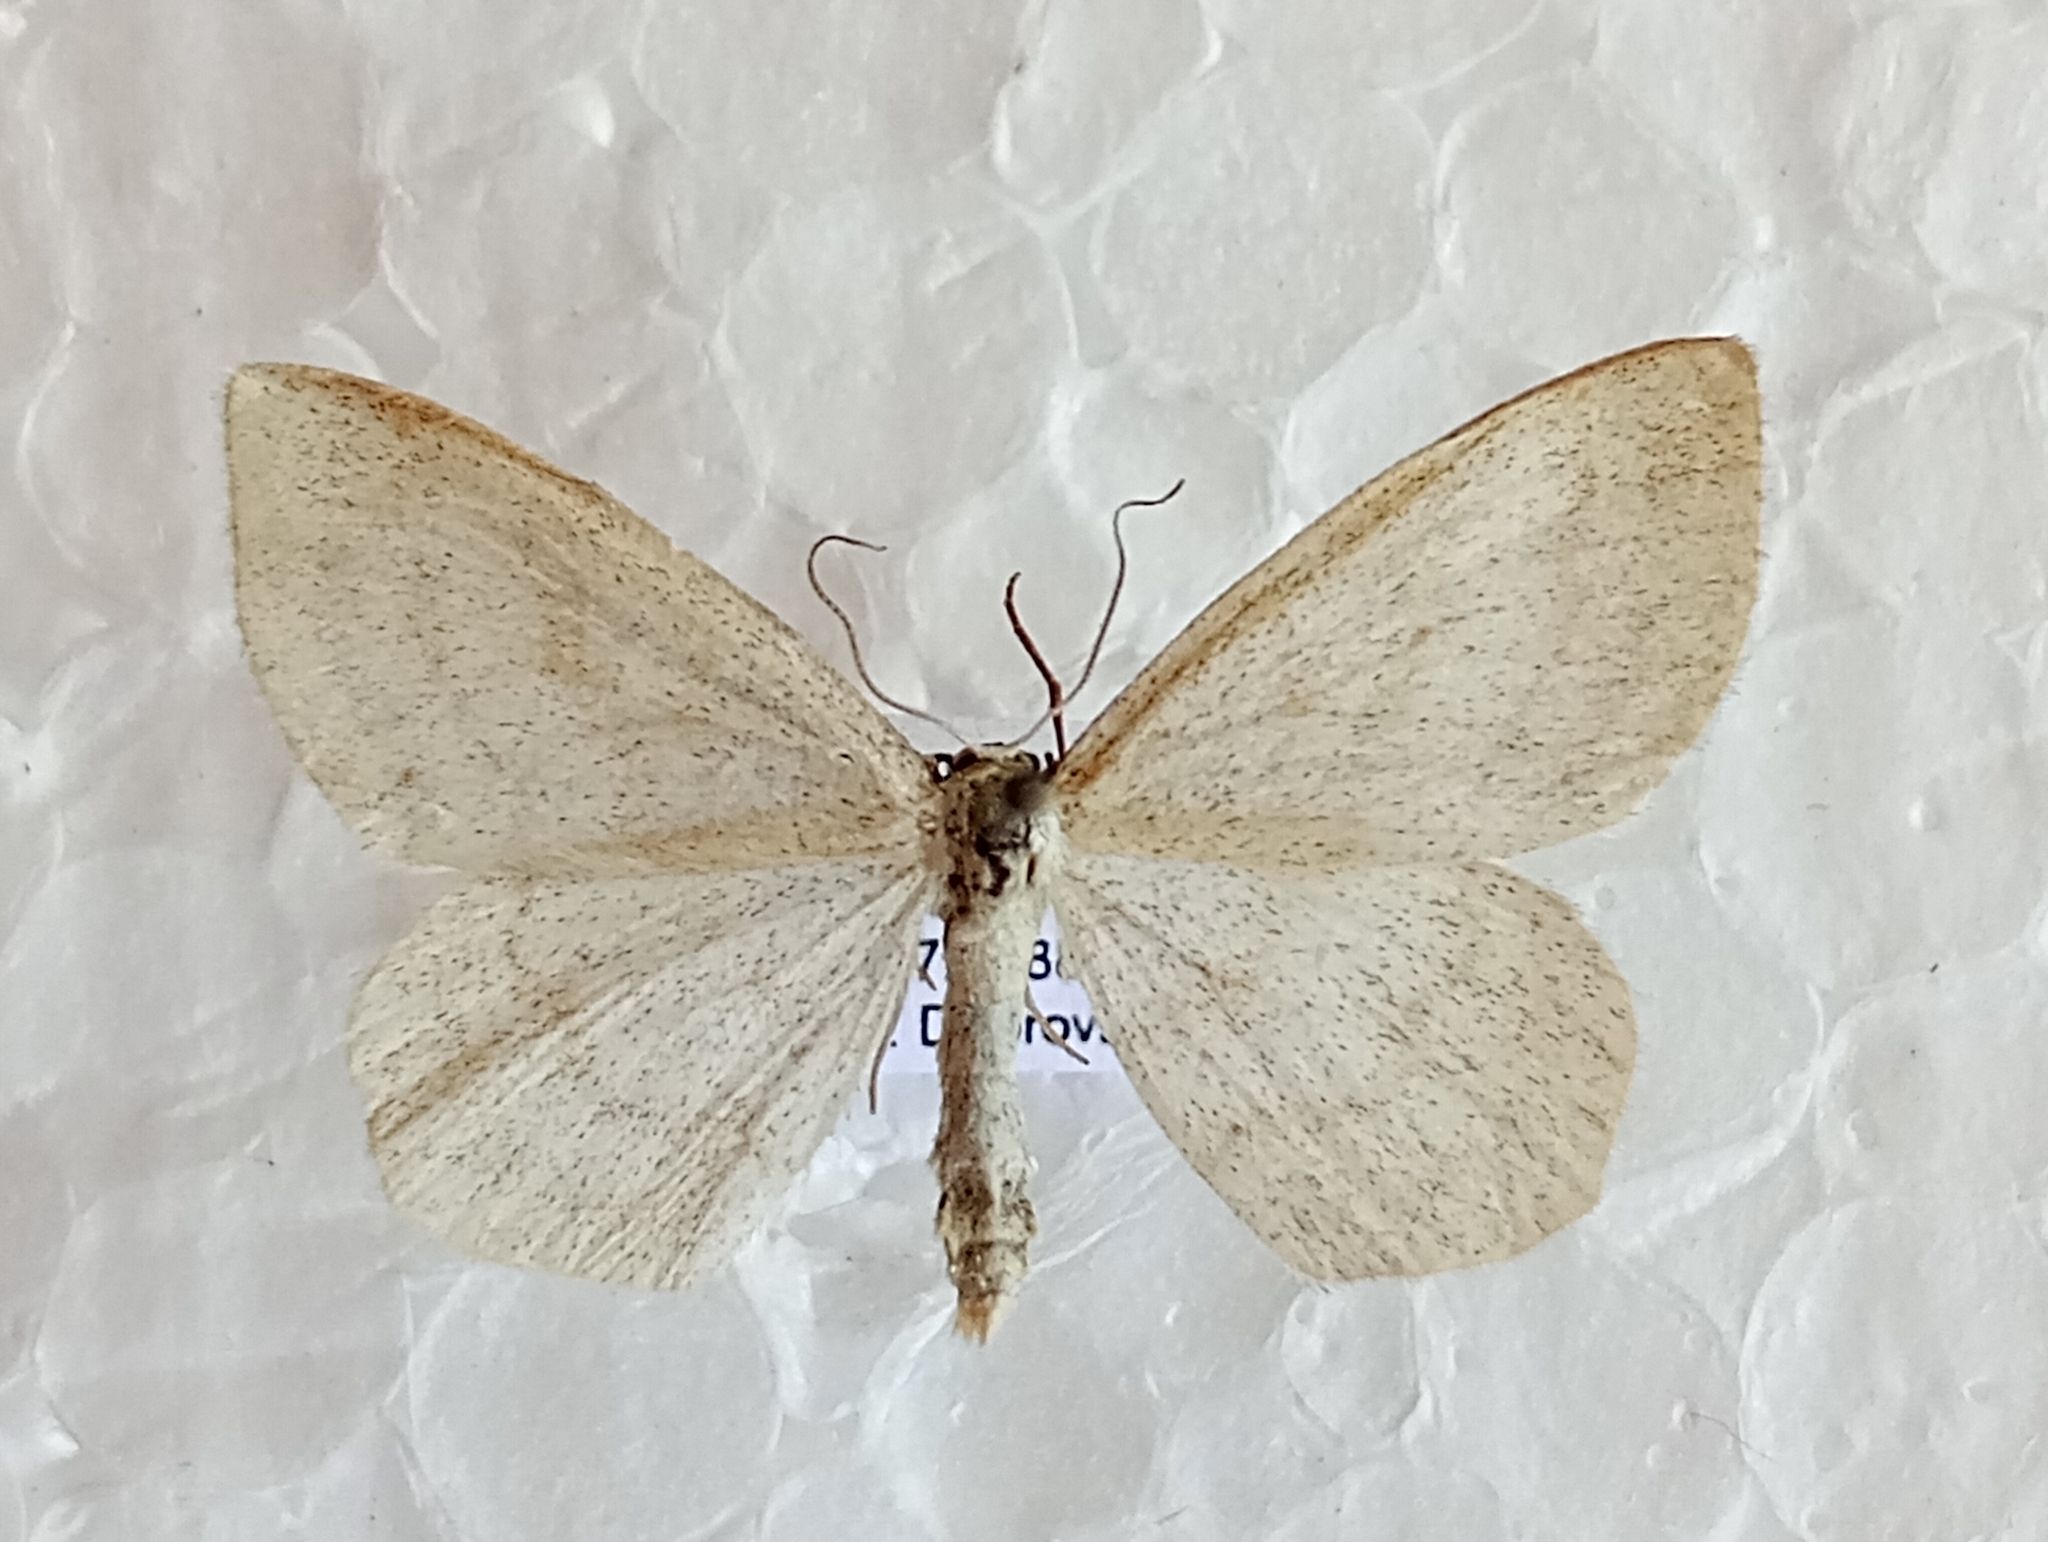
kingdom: Animalia
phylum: Arthropoda
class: Insecta
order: Lepidoptera
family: Geometridae
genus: Scopula
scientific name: Scopula ternata
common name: Smoky wave
